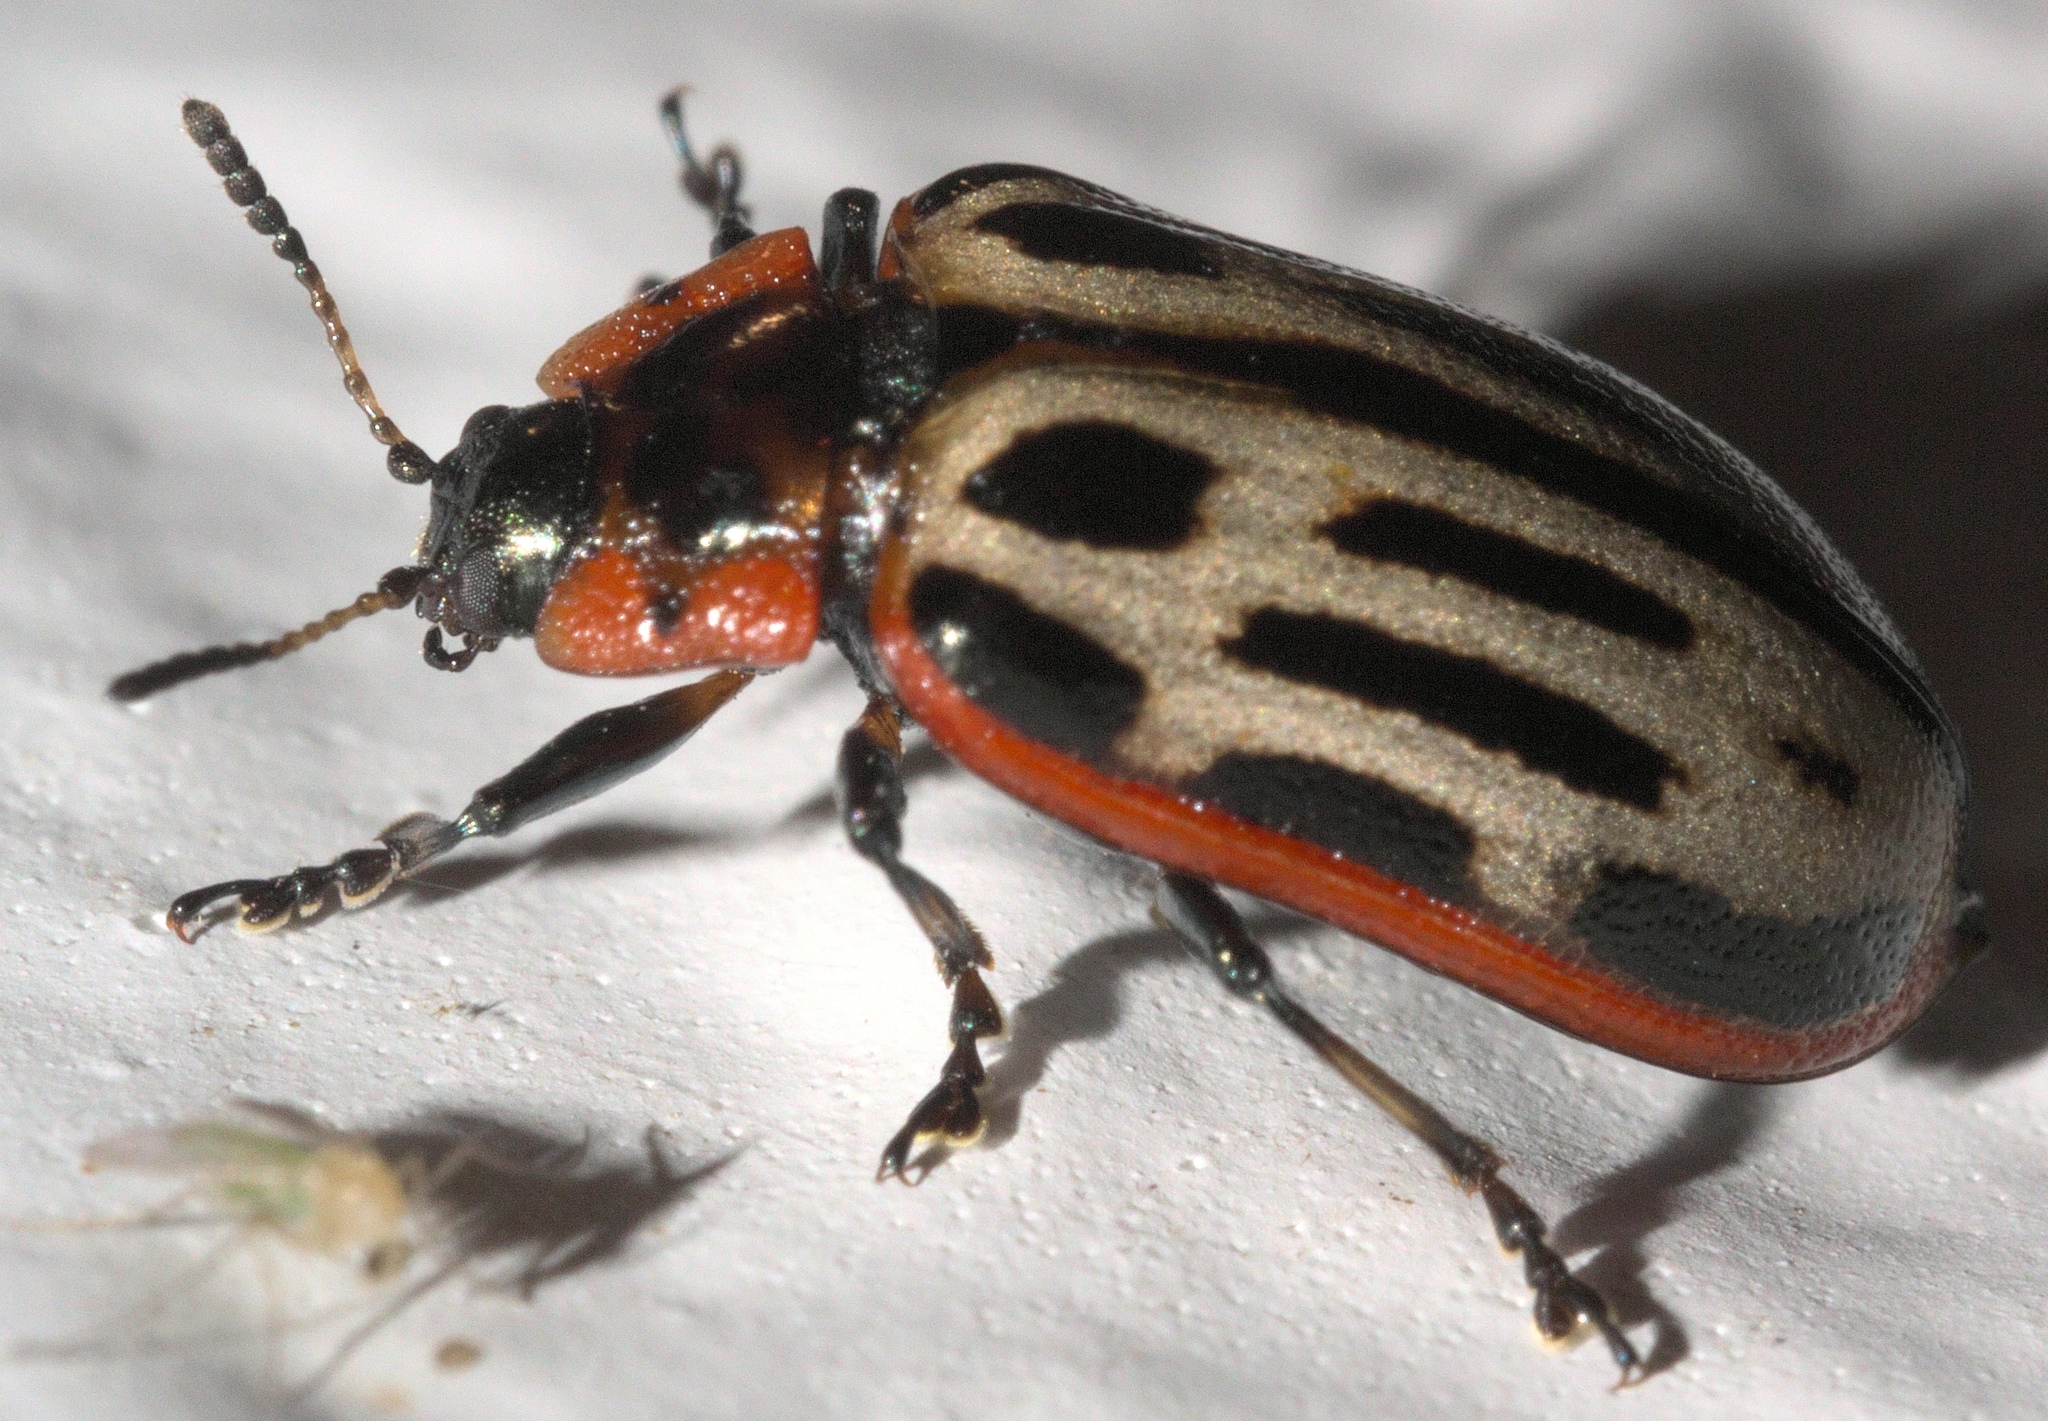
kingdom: Animalia
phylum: Arthropoda
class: Insecta
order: Coleoptera
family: Chrysomelidae
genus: Aethiopocassis
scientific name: Aethiopocassis scripta
